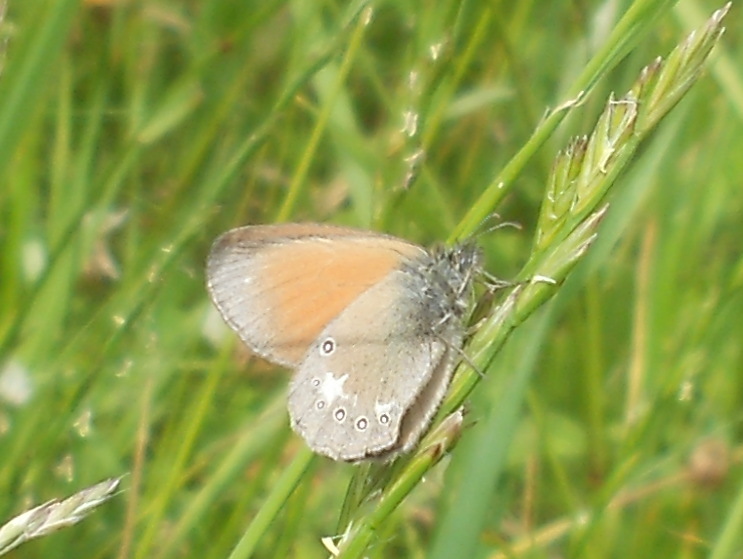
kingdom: Animalia
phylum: Arthropoda
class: Insecta
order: Lepidoptera
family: Nymphalidae
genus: Coenonympha
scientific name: Coenonympha iphis
